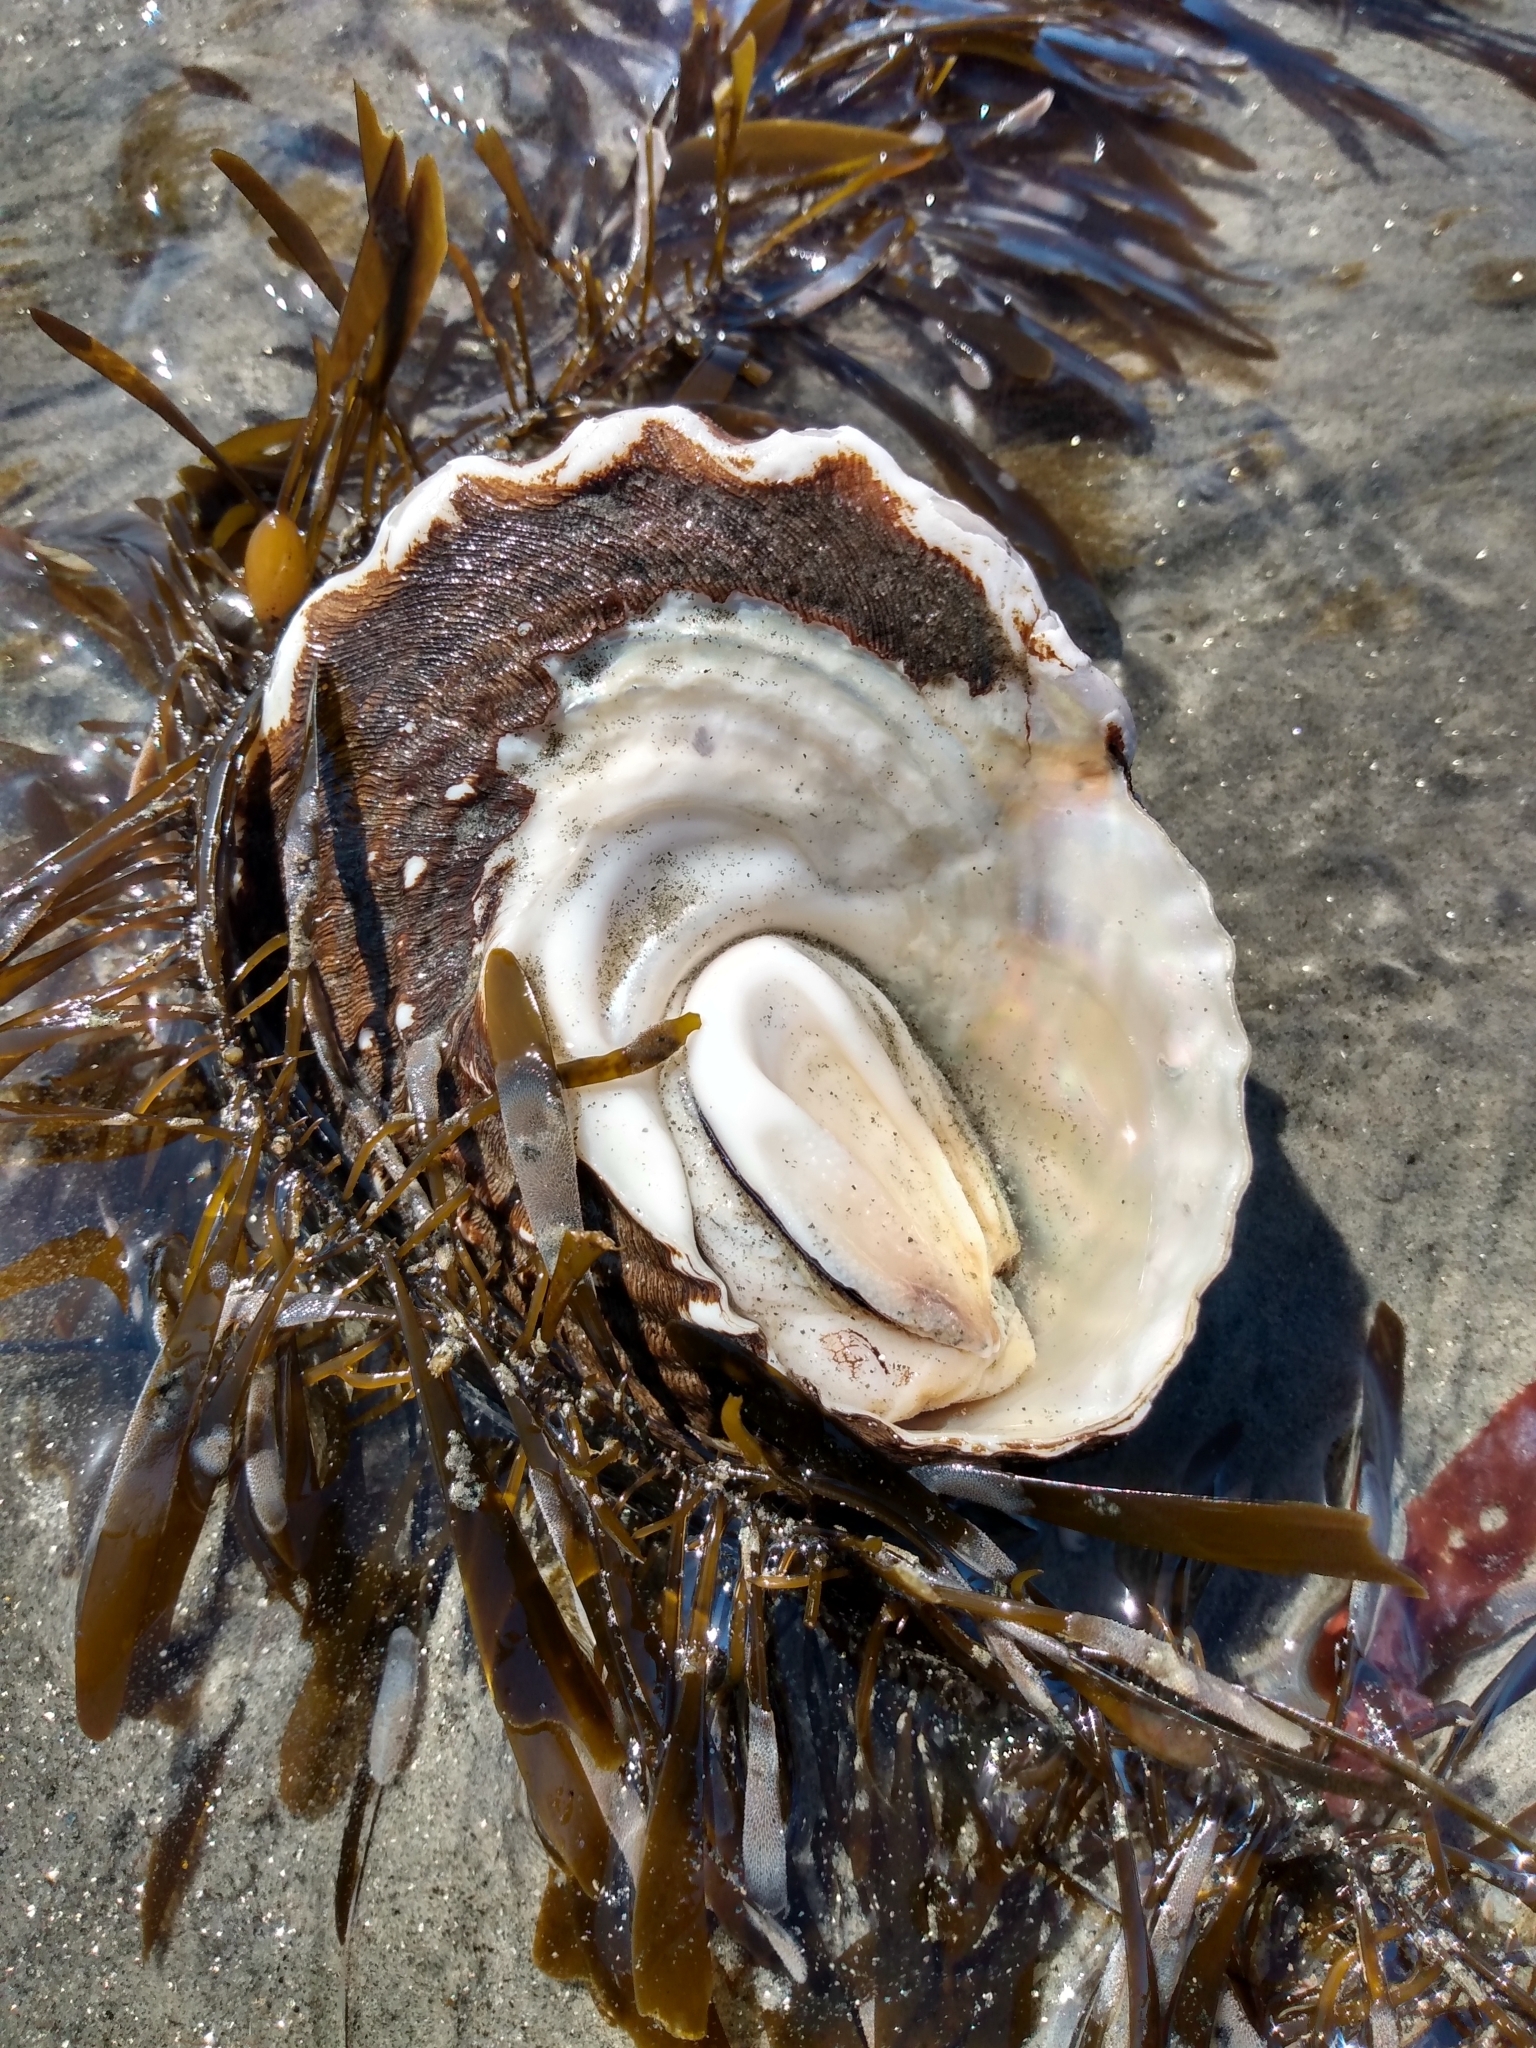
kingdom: Animalia
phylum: Mollusca
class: Gastropoda
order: Trochida
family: Turbinidae
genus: Megastraea
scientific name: Megastraea undosa
